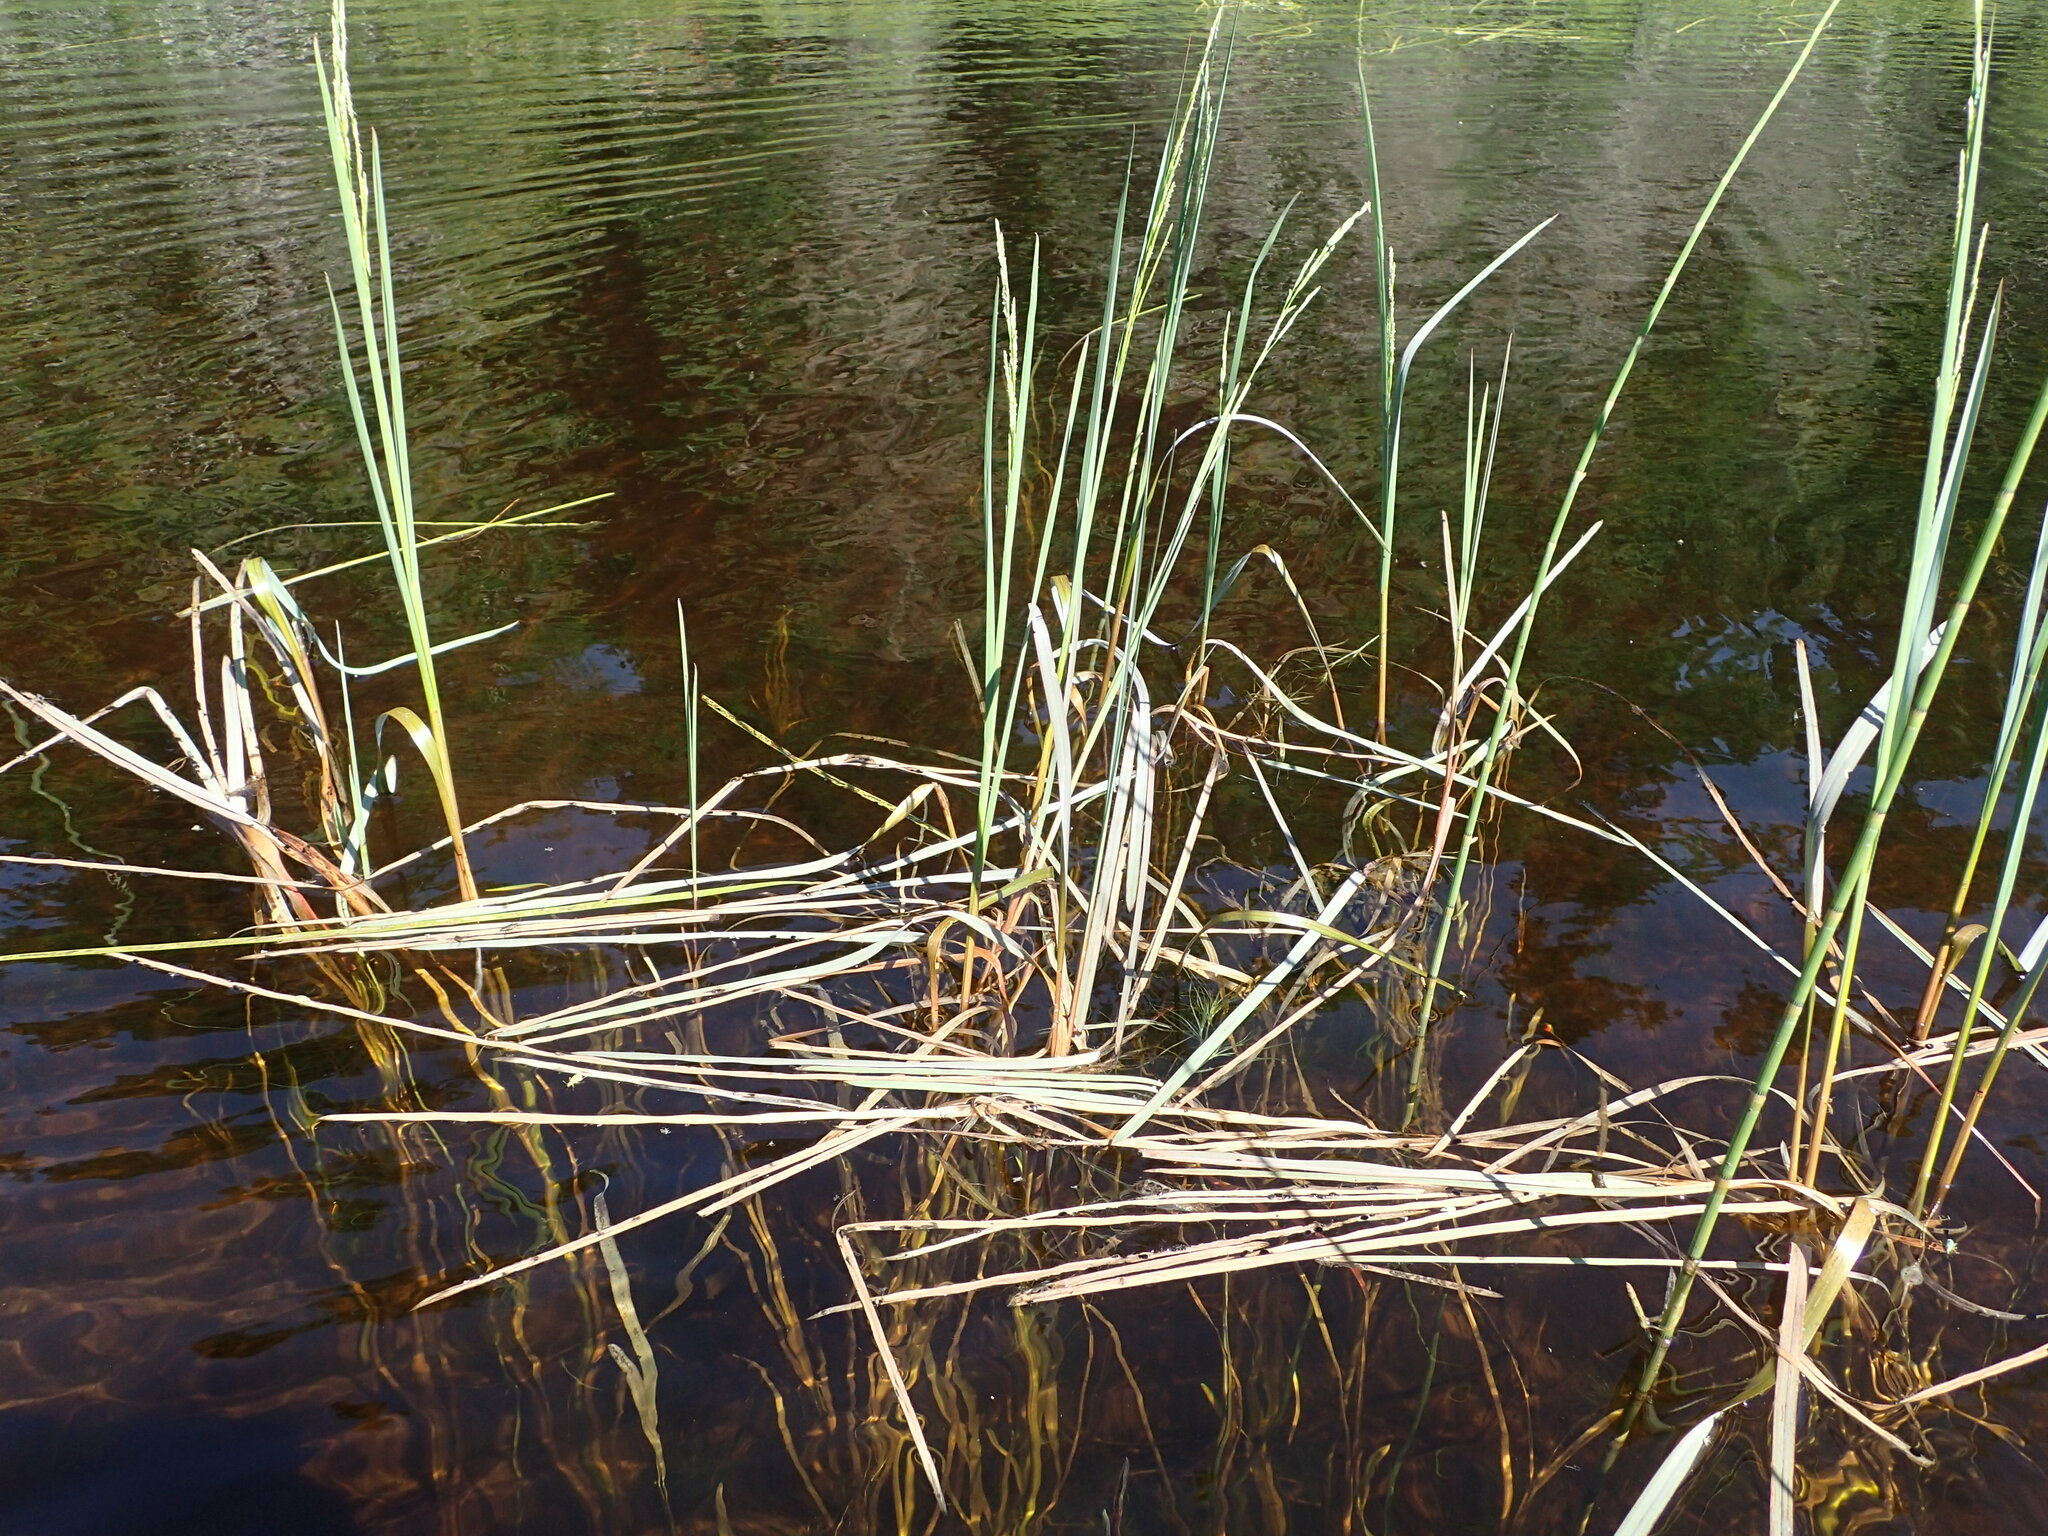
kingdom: Plantae
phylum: Tracheophyta
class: Liliopsida
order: Poales
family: Poaceae
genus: Glyceria
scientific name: Glyceria borealis
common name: Boreal glyceria
